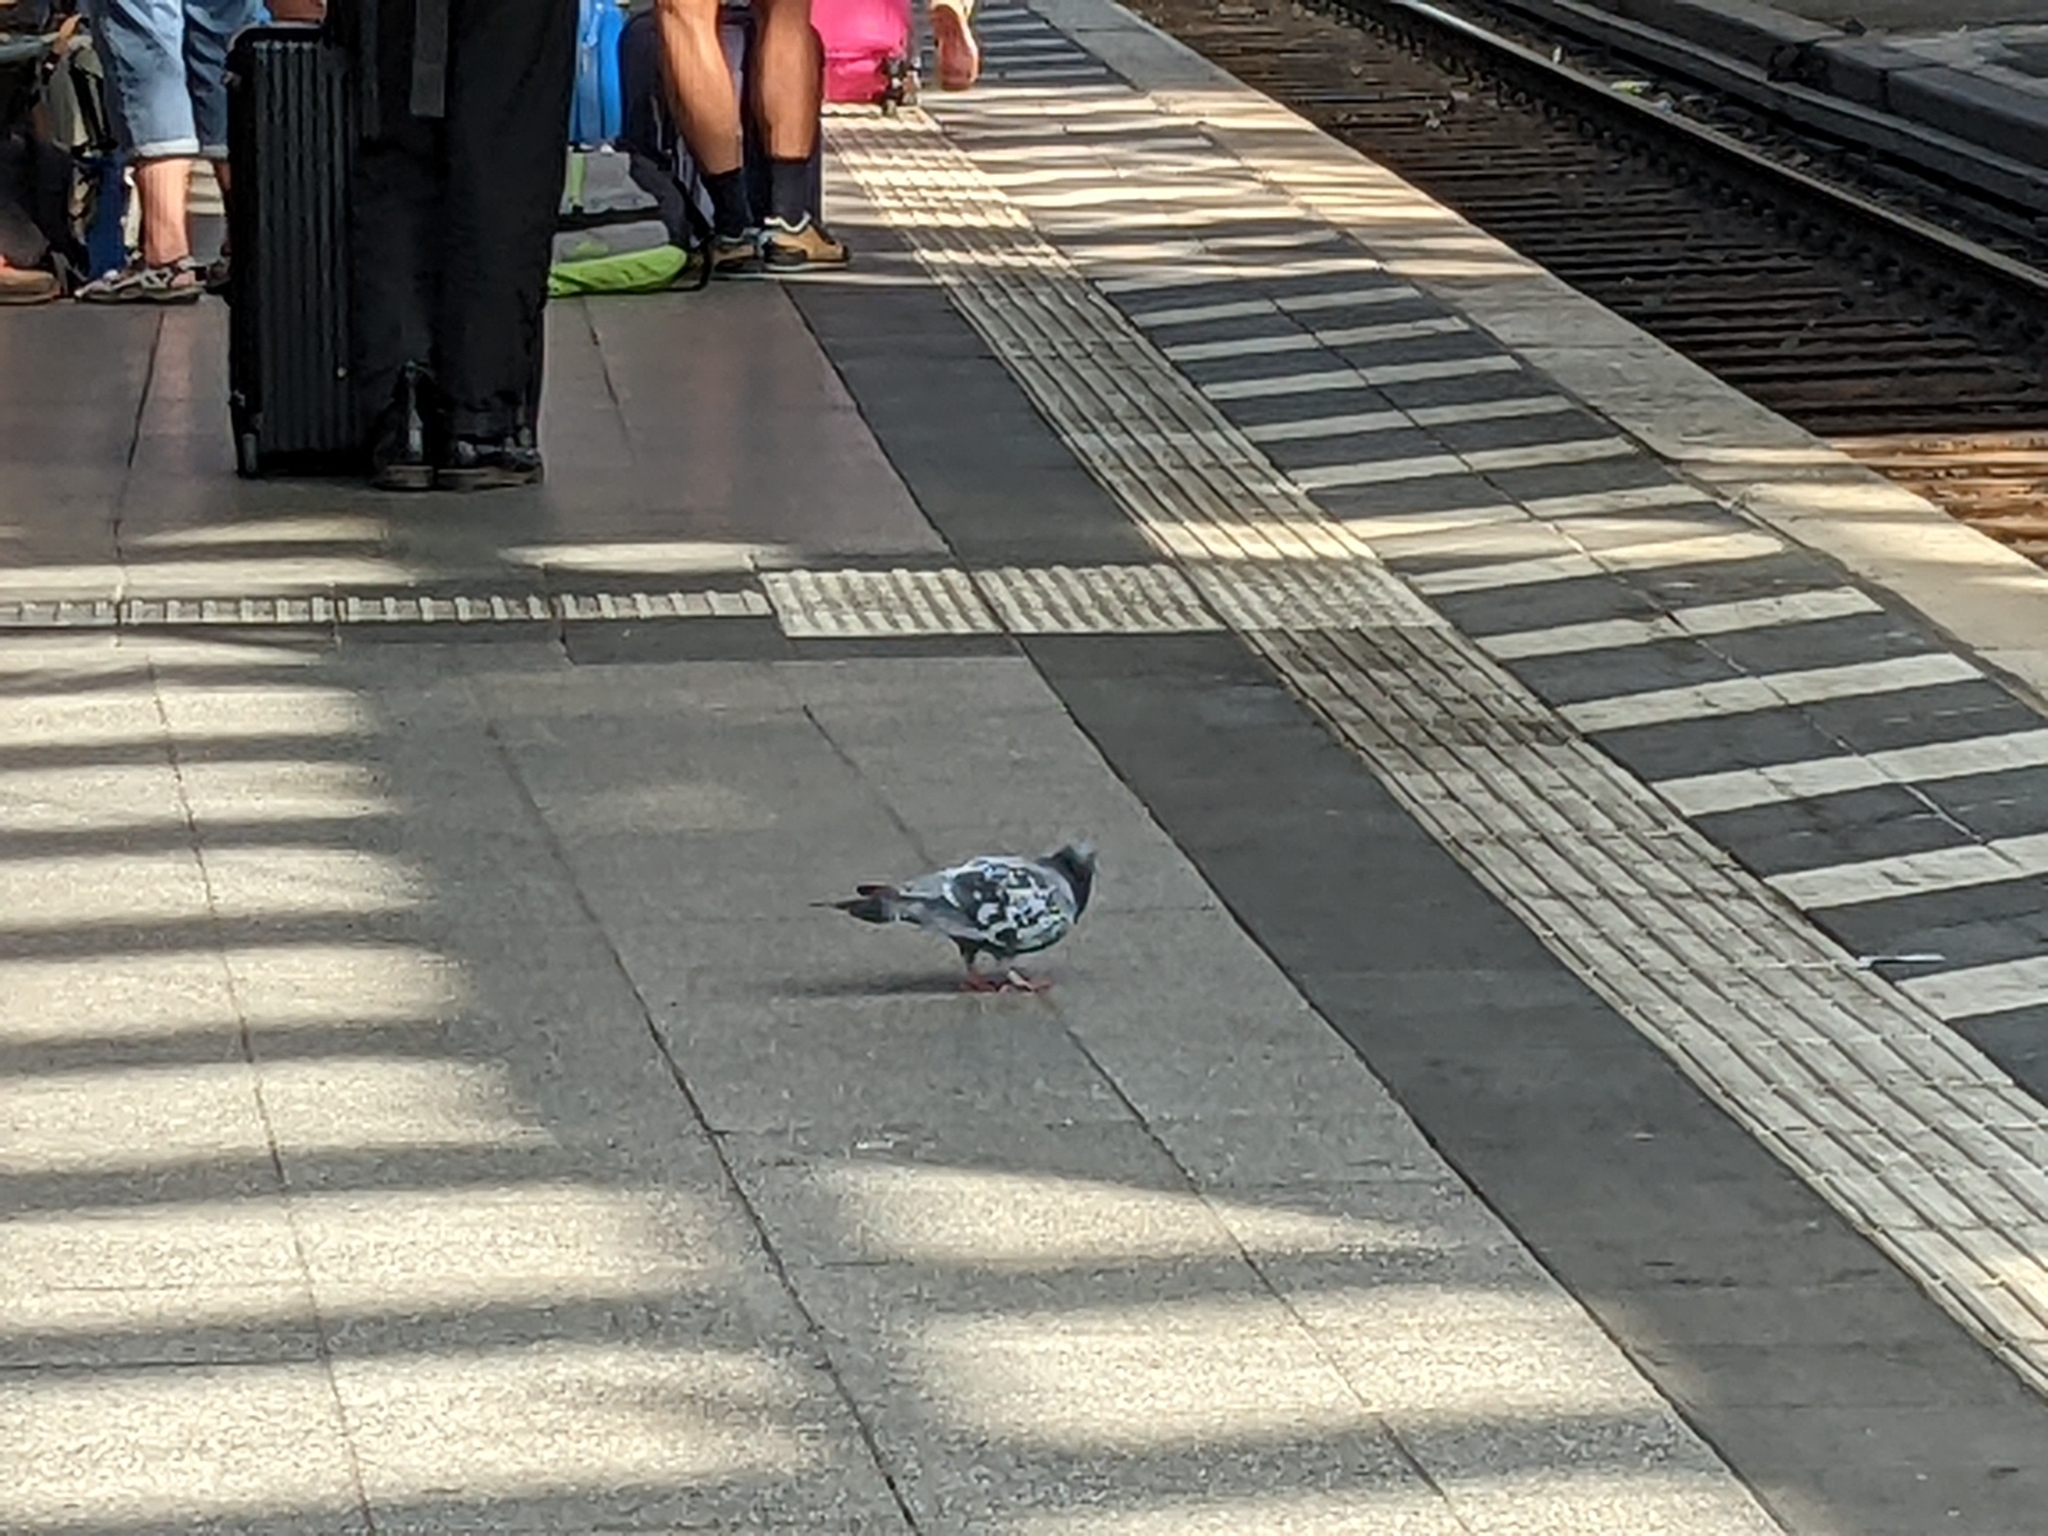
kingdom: Animalia
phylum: Chordata
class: Aves
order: Columbiformes
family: Columbidae
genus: Columba
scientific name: Columba livia
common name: Rock pigeon
